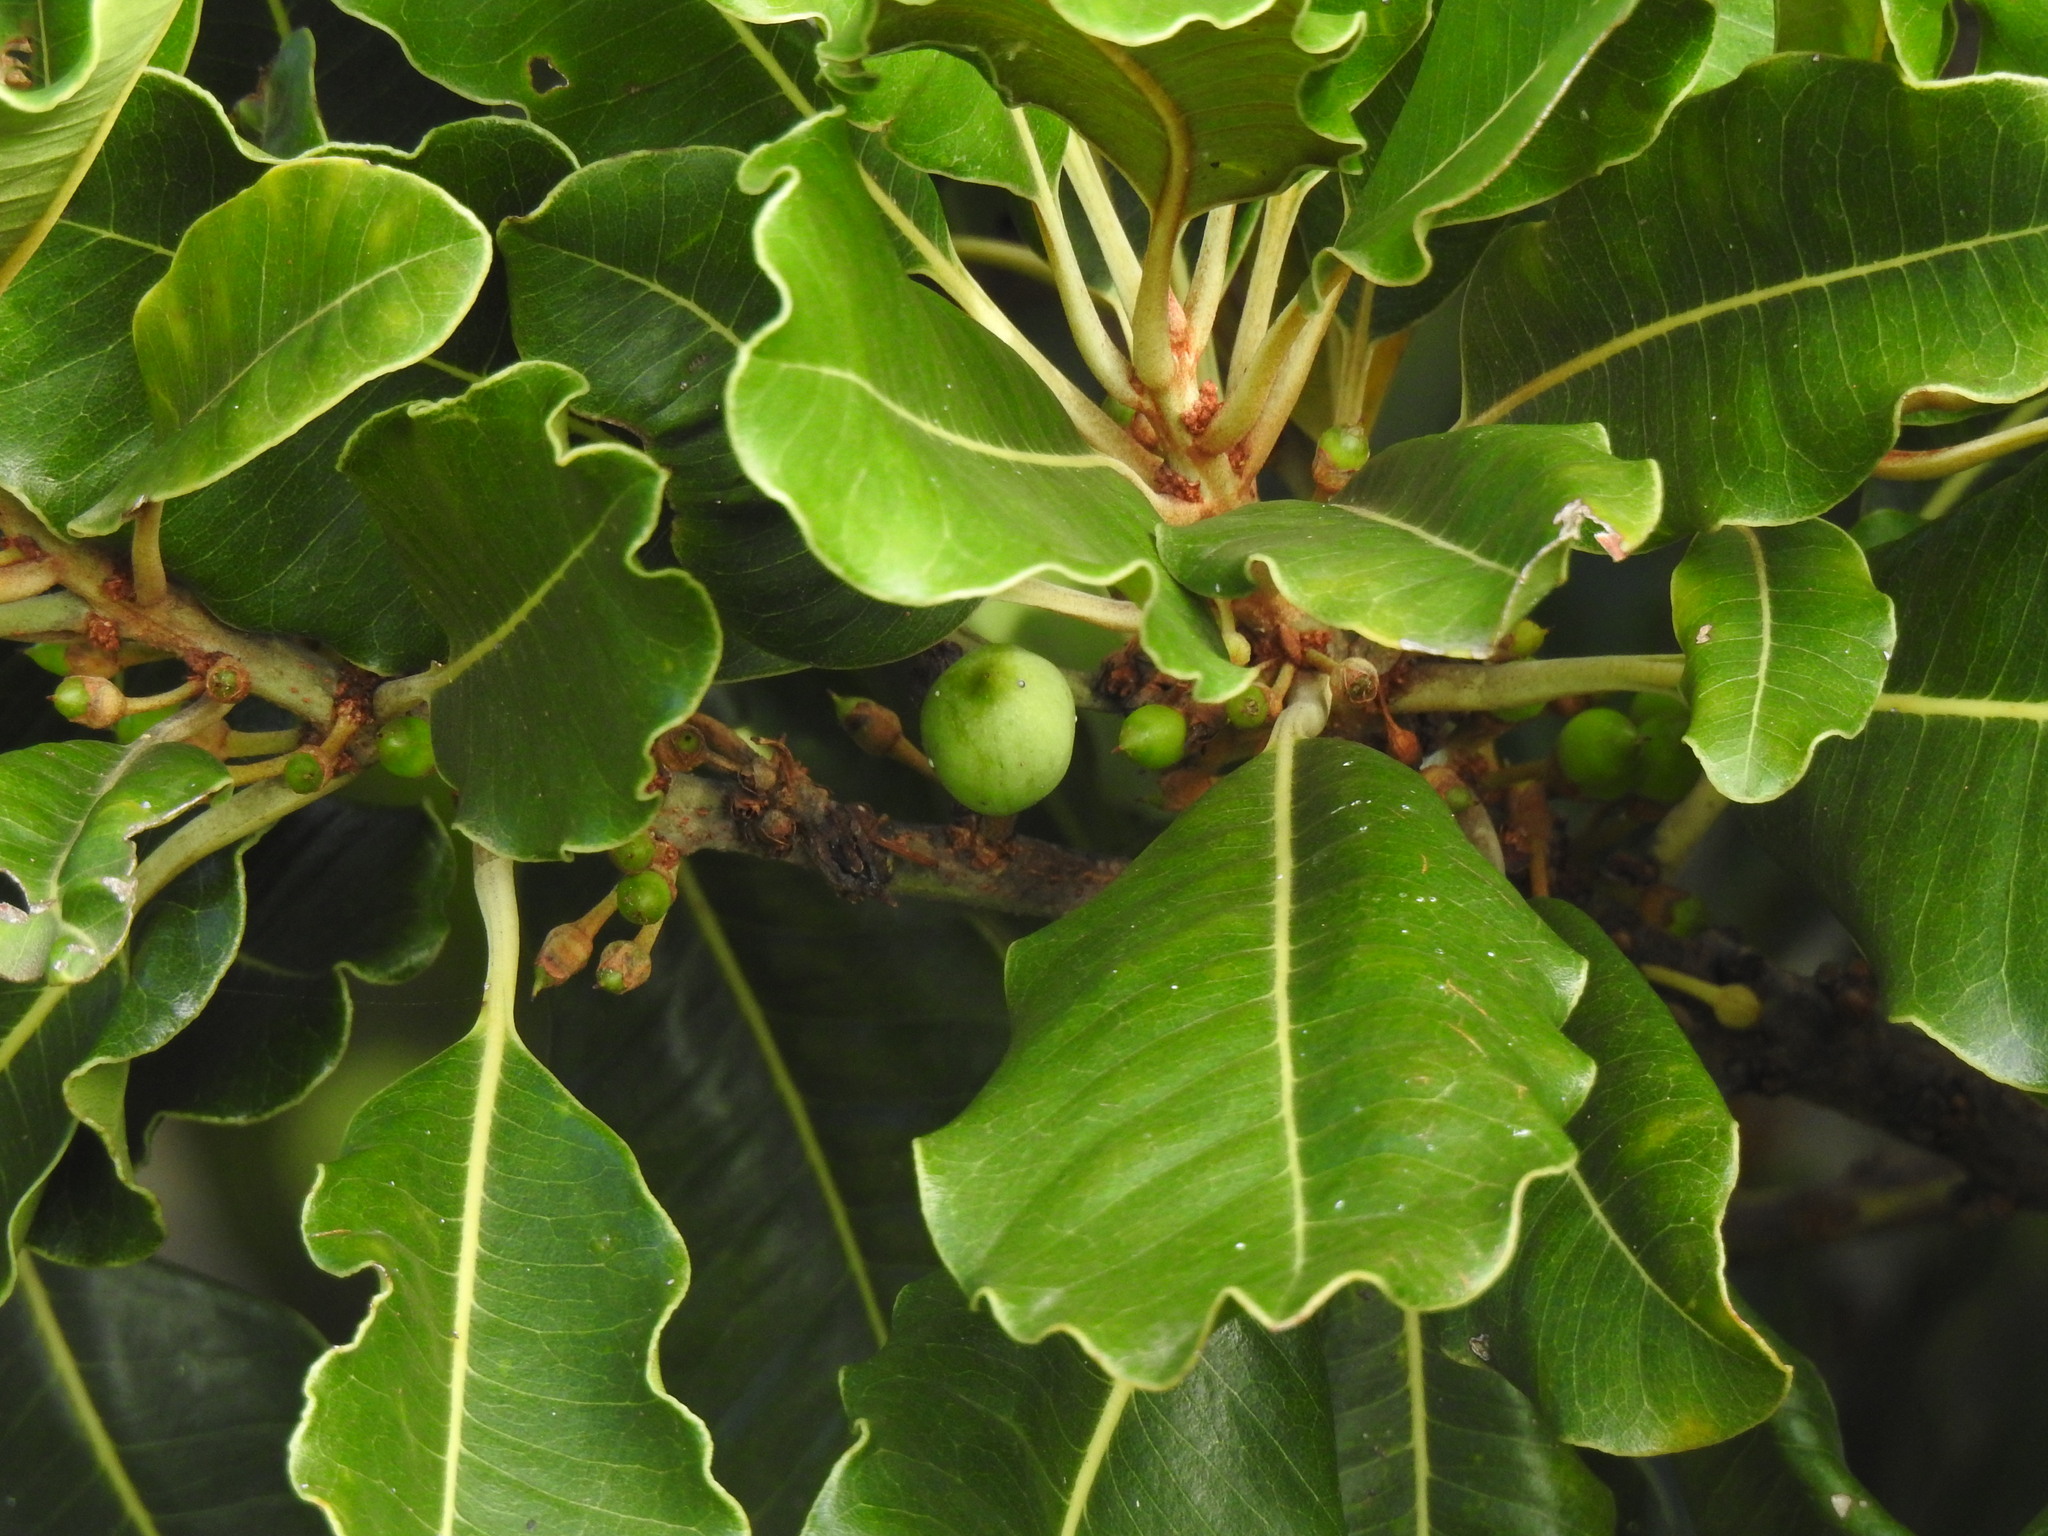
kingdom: Plantae
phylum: Tracheophyta
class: Magnoliopsida
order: Ericales
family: Sapotaceae
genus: Sideroxylon
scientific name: Sideroxylon mirmulans
